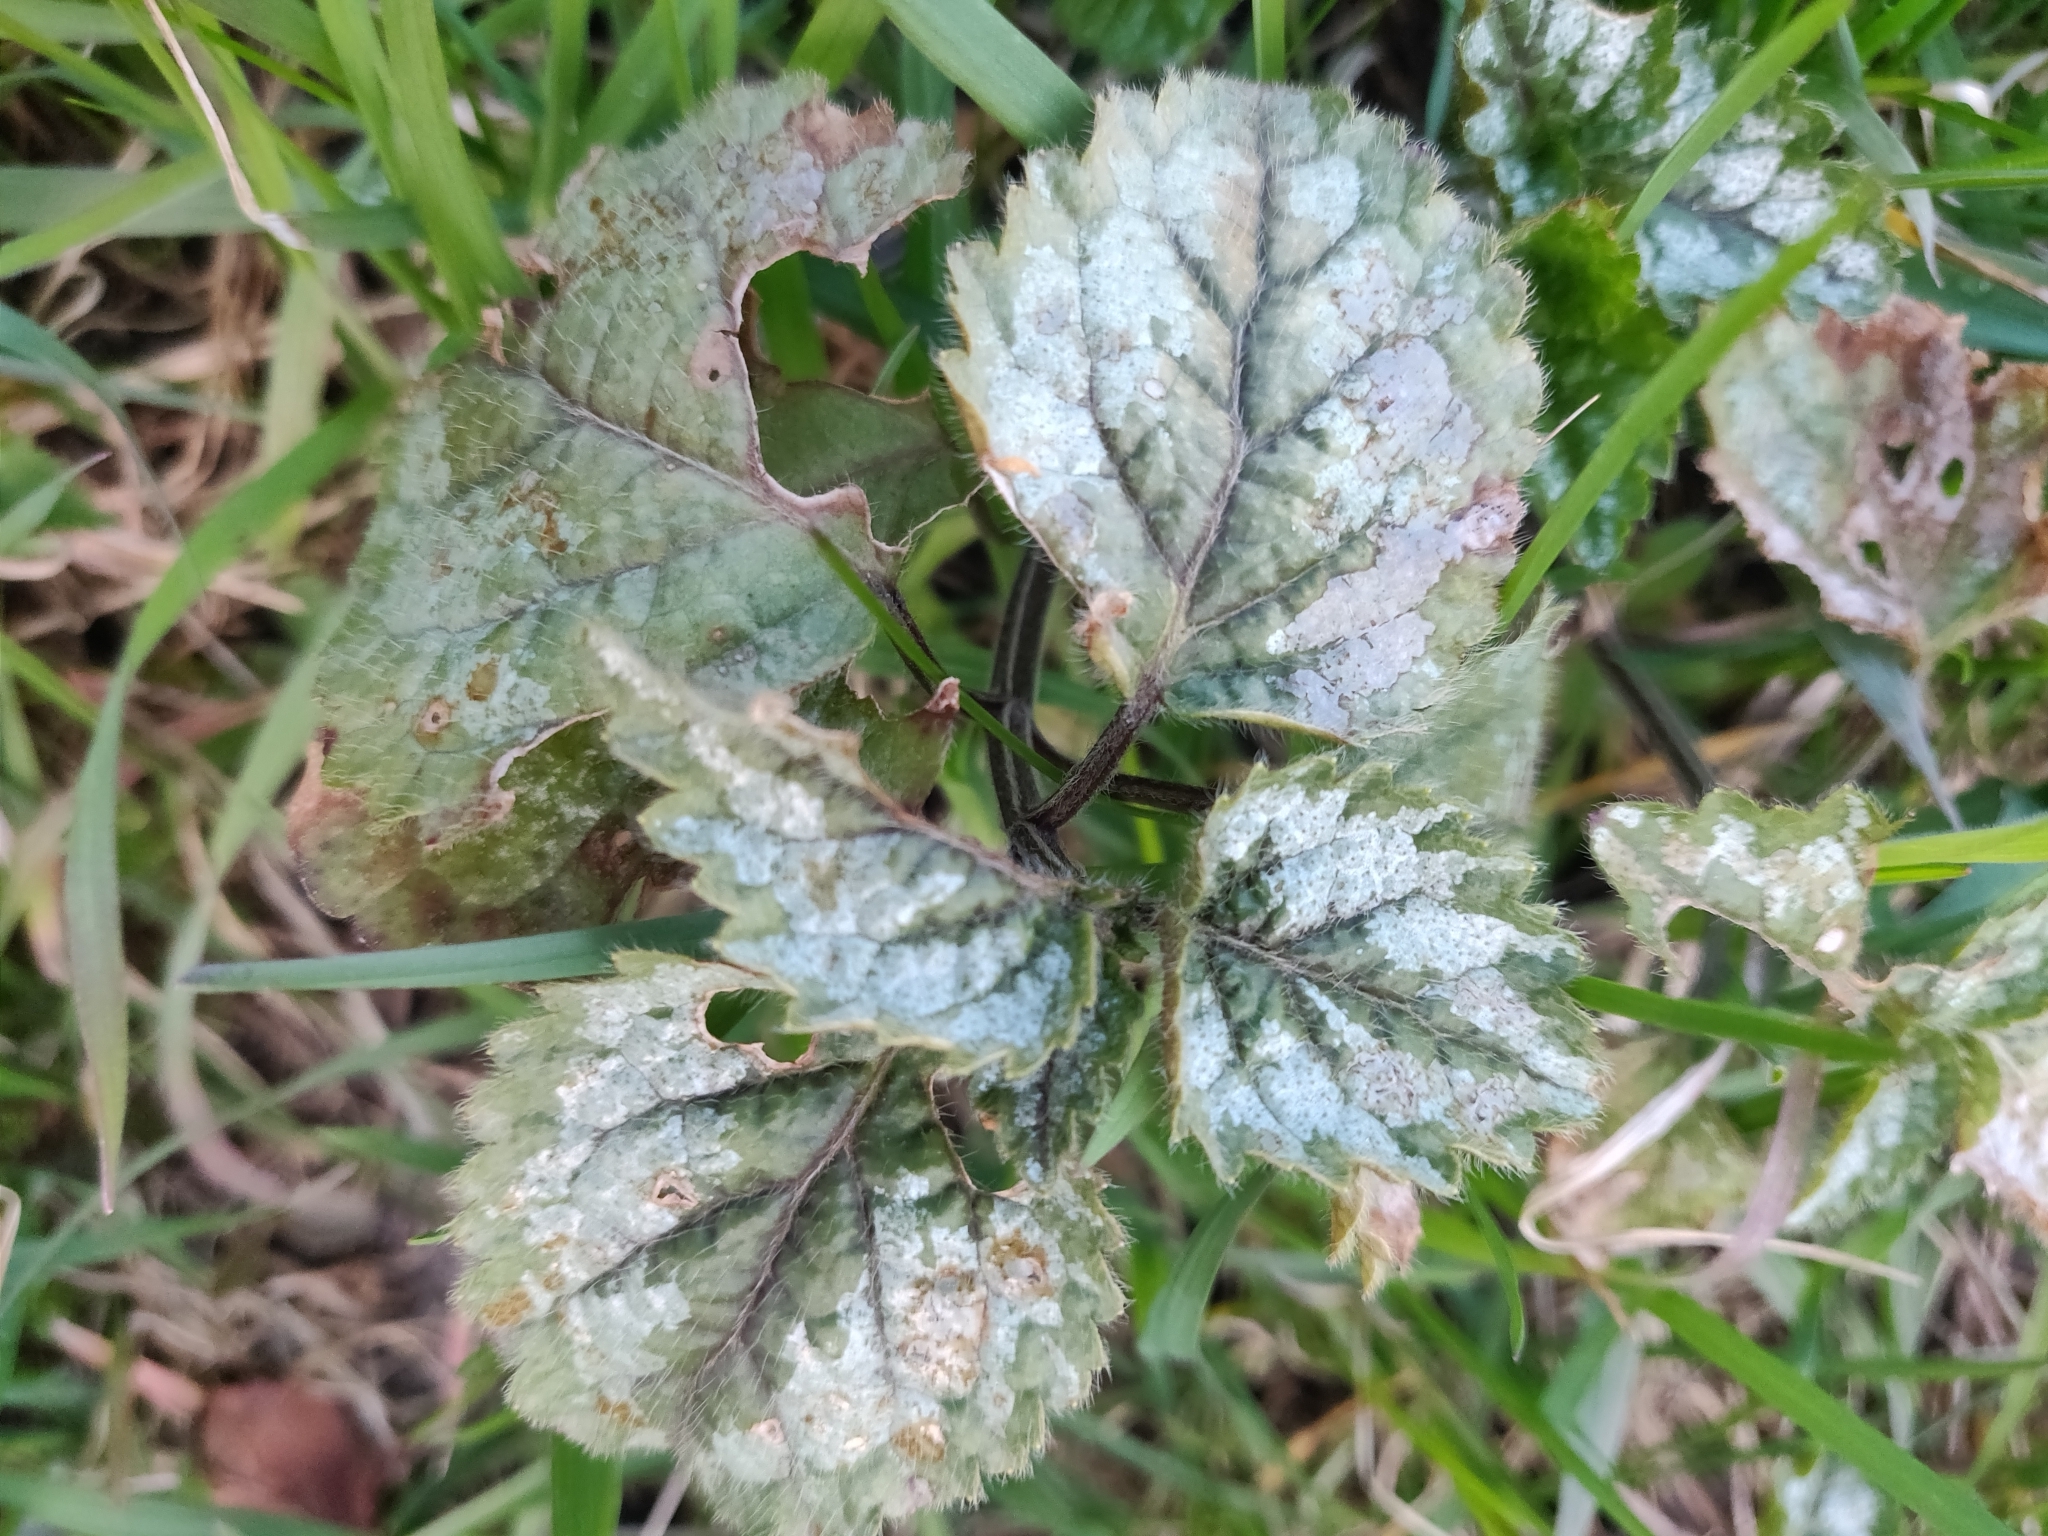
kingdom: Plantae
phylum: Tracheophyta
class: Magnoliopsida
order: Lamiales
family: Lamiaceae
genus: Lamium
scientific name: Lamium galeobdolon
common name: Yellow archangel
